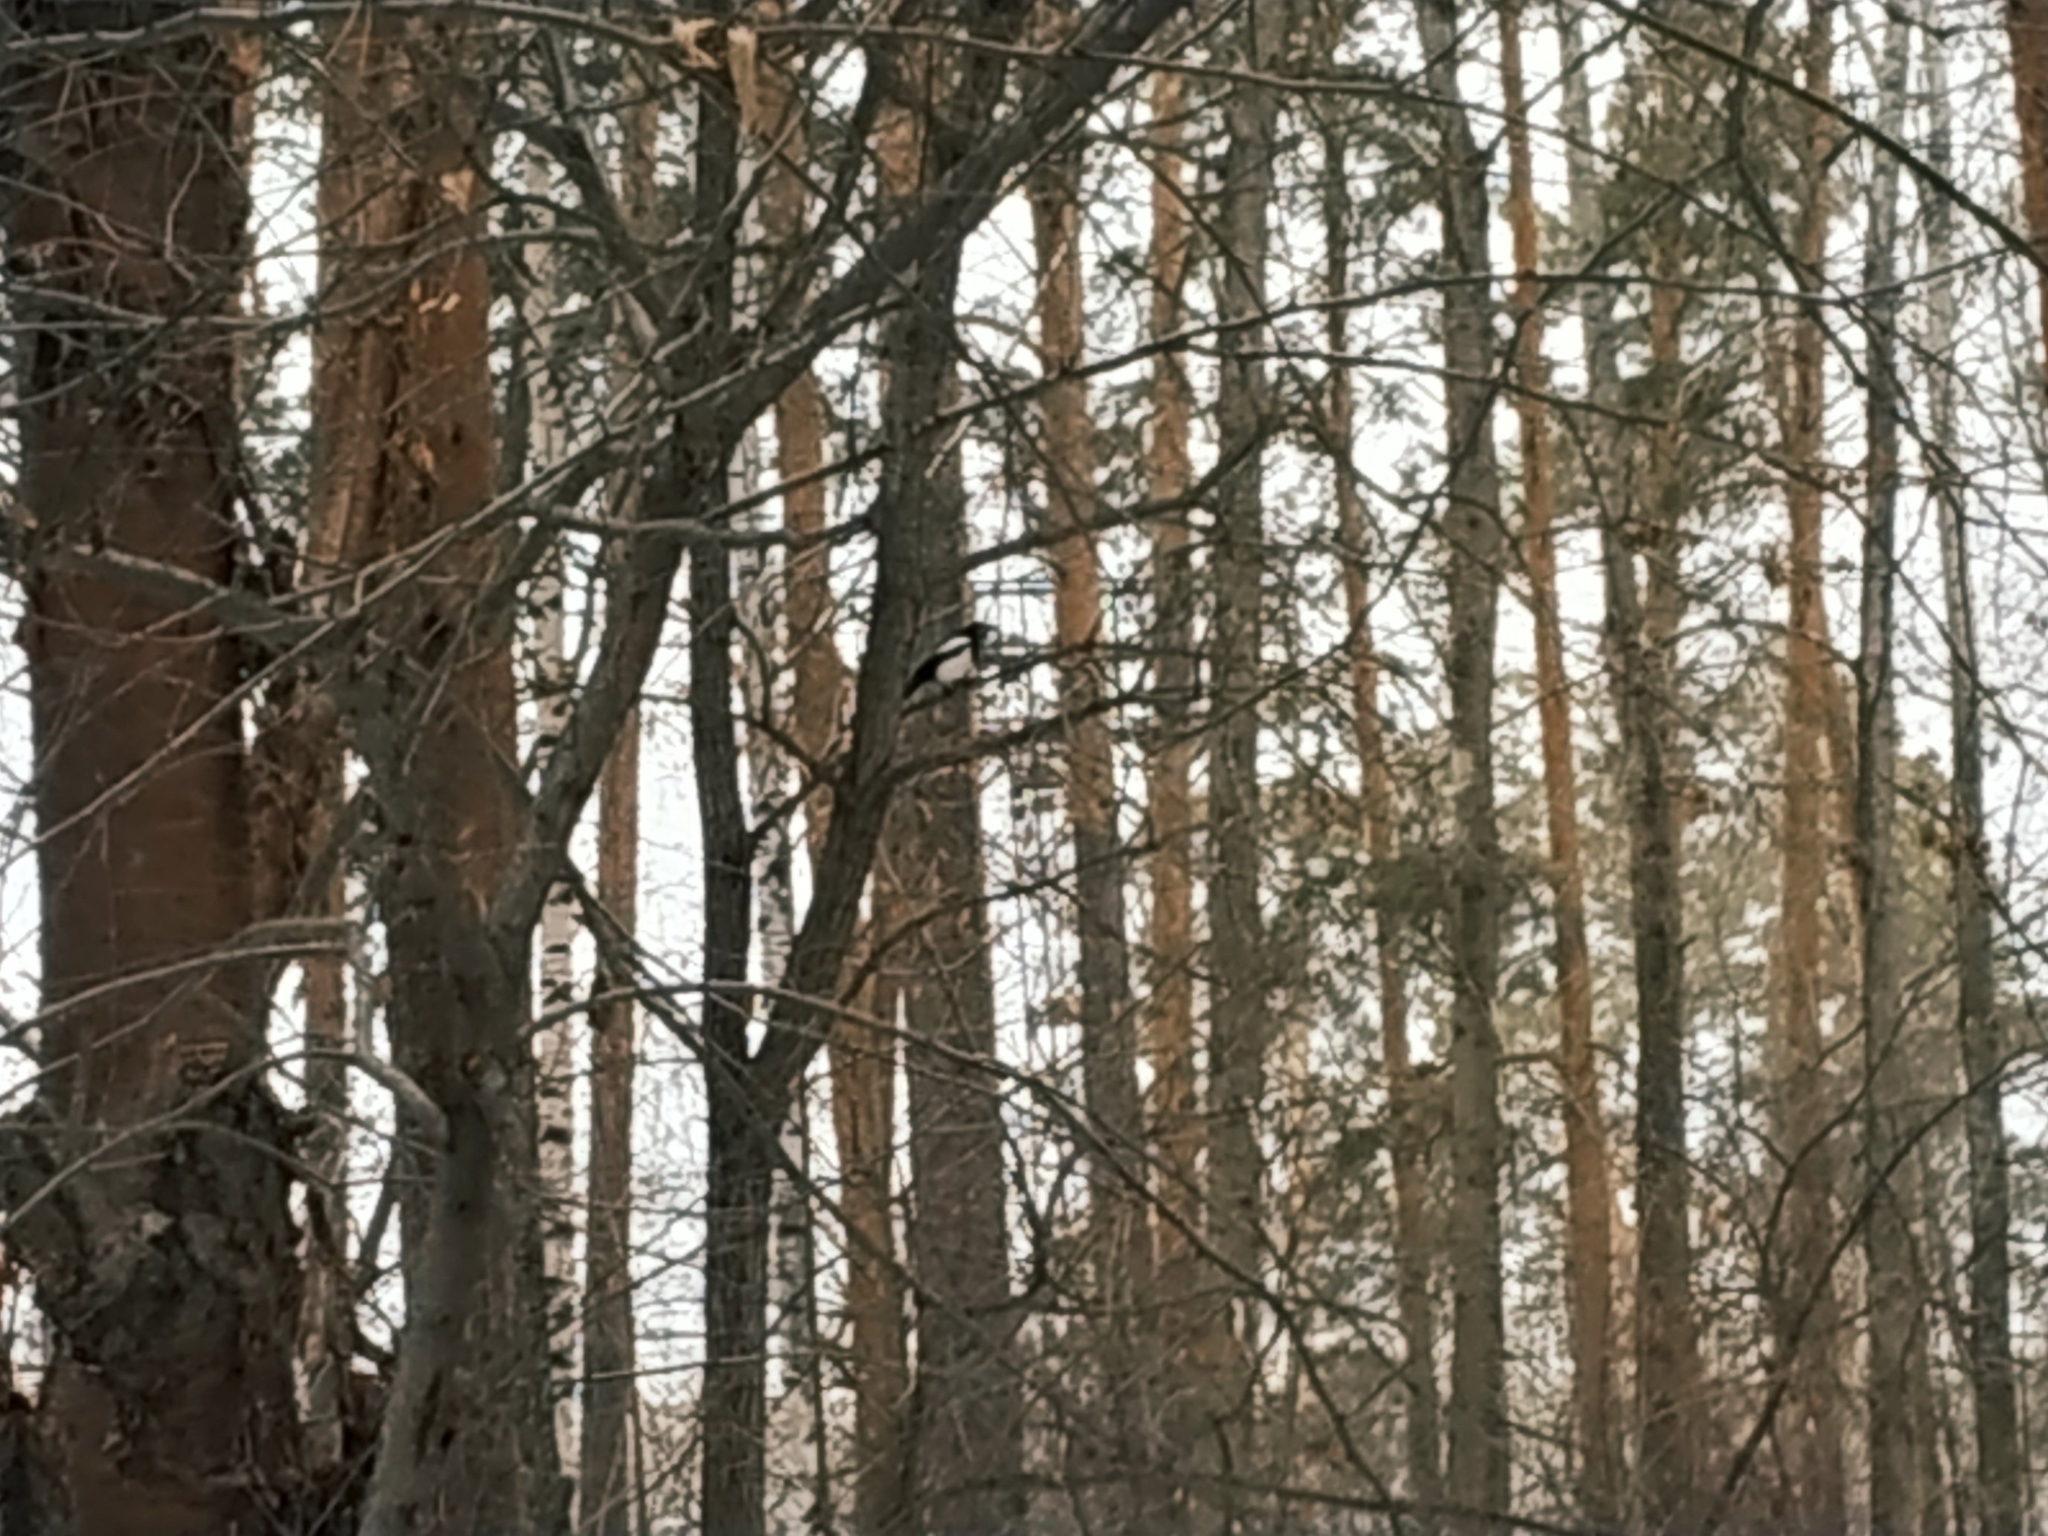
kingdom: Animalia
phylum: Chordata
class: Aves
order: Passeriformes
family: Corvidae
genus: Pica
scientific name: Pica pica
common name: Eurasian magpie
